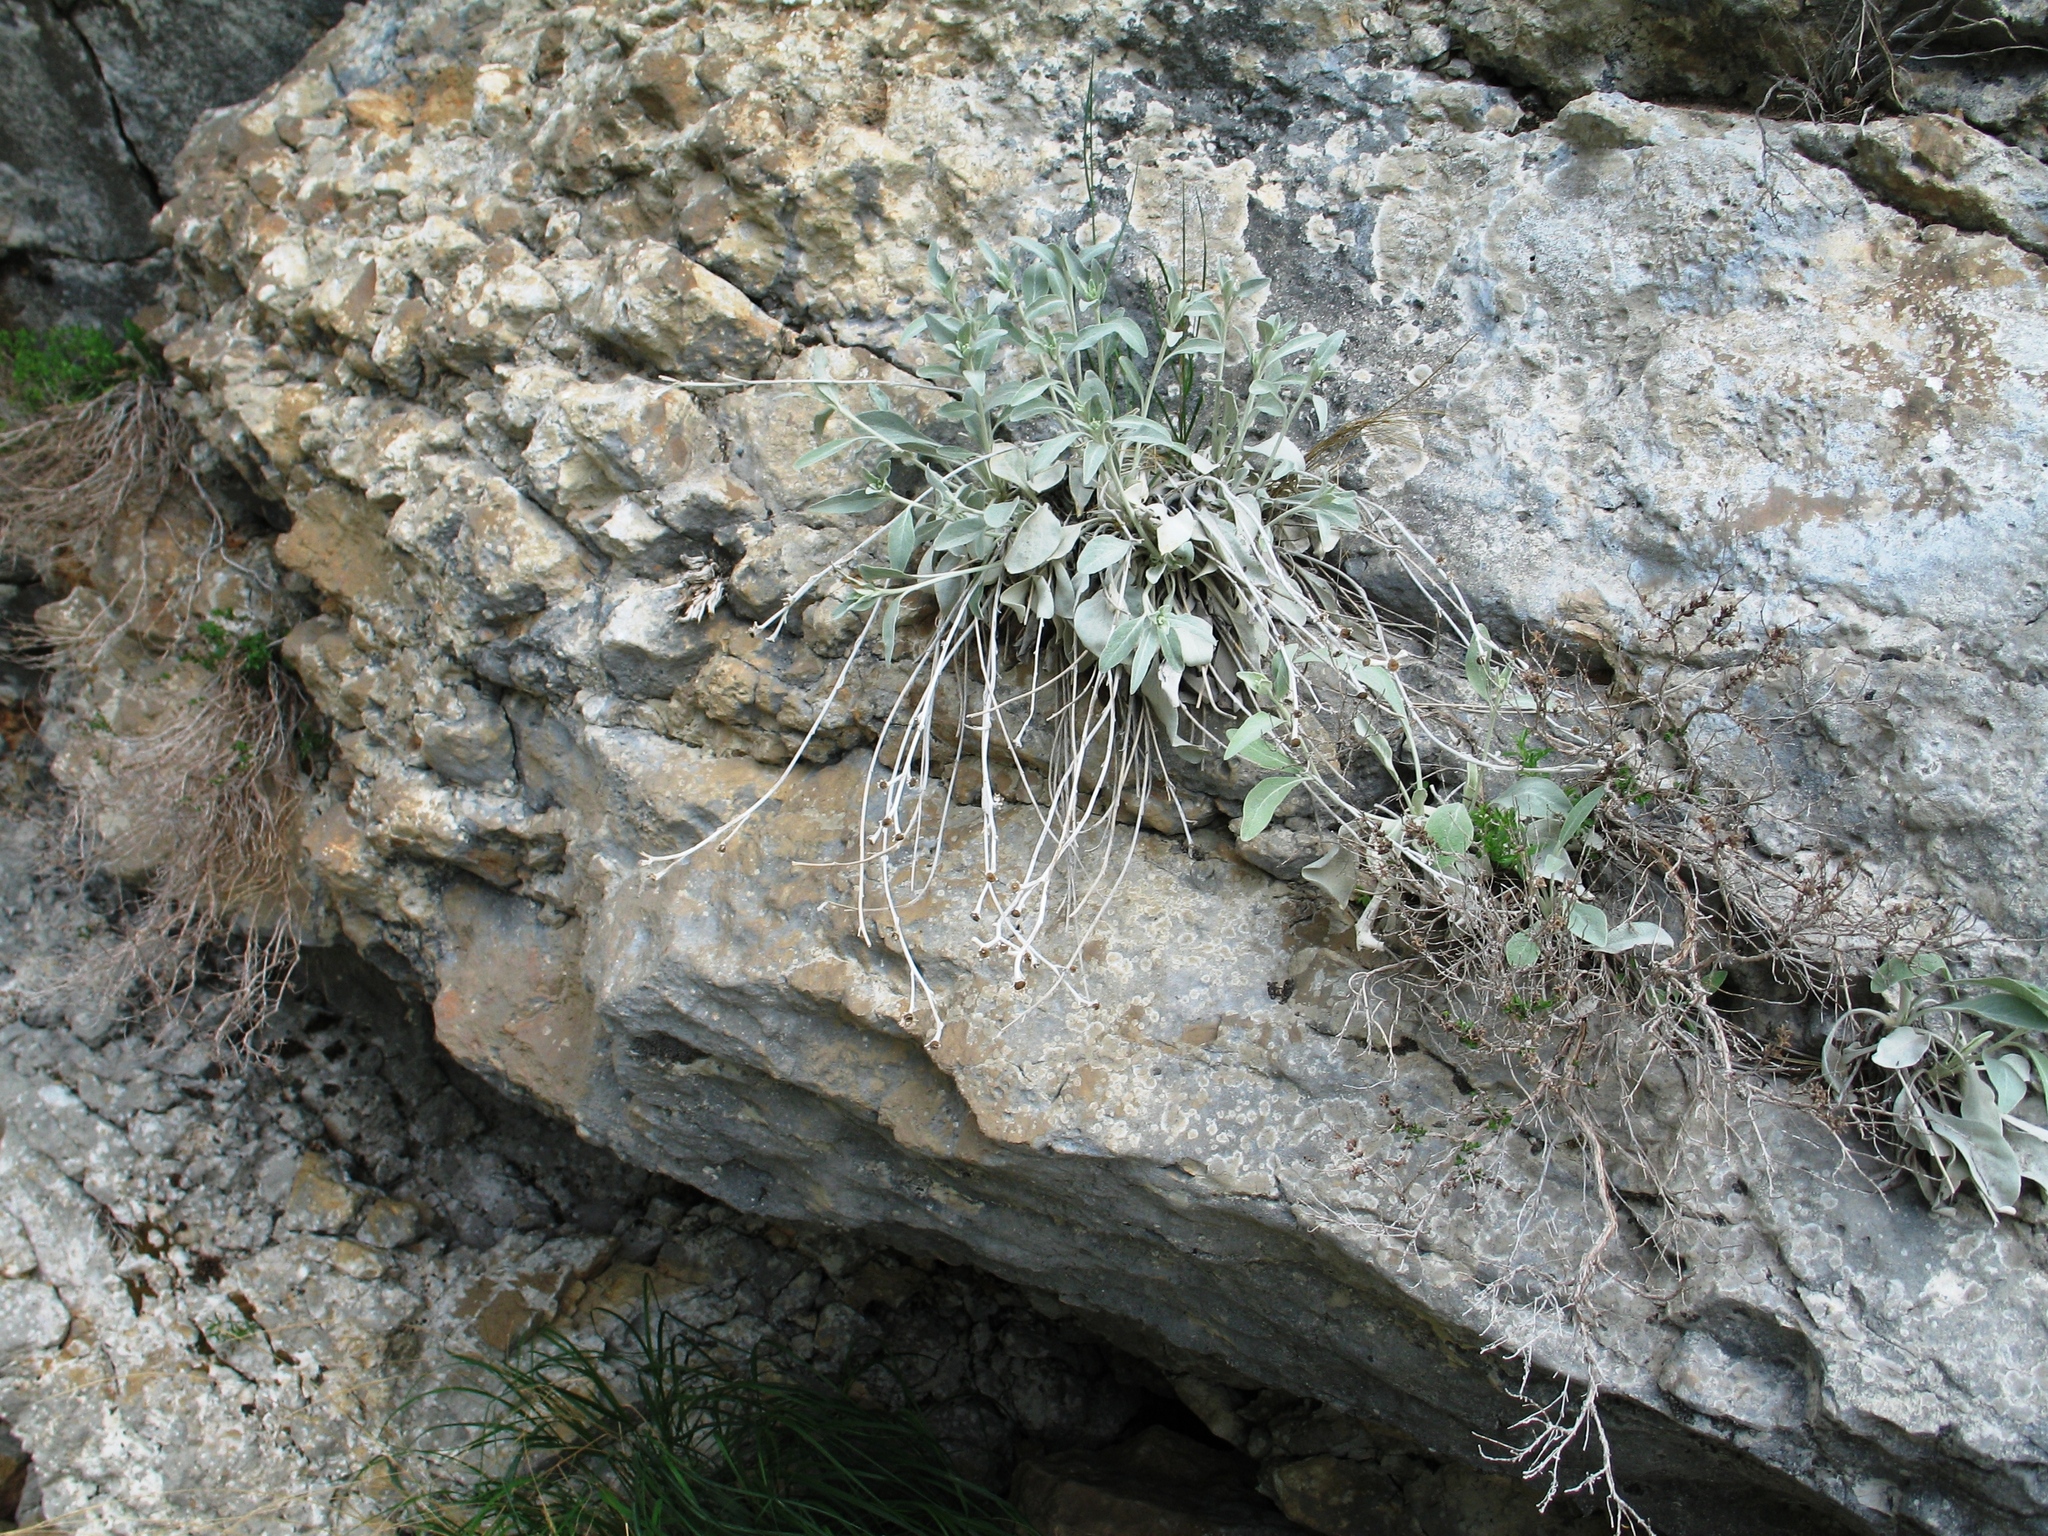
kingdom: Plantae
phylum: Tracheophyta
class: Magnoliopsida
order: Asterales
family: Asteraceae
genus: Pentanema
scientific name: Pentanema verbascifolium
